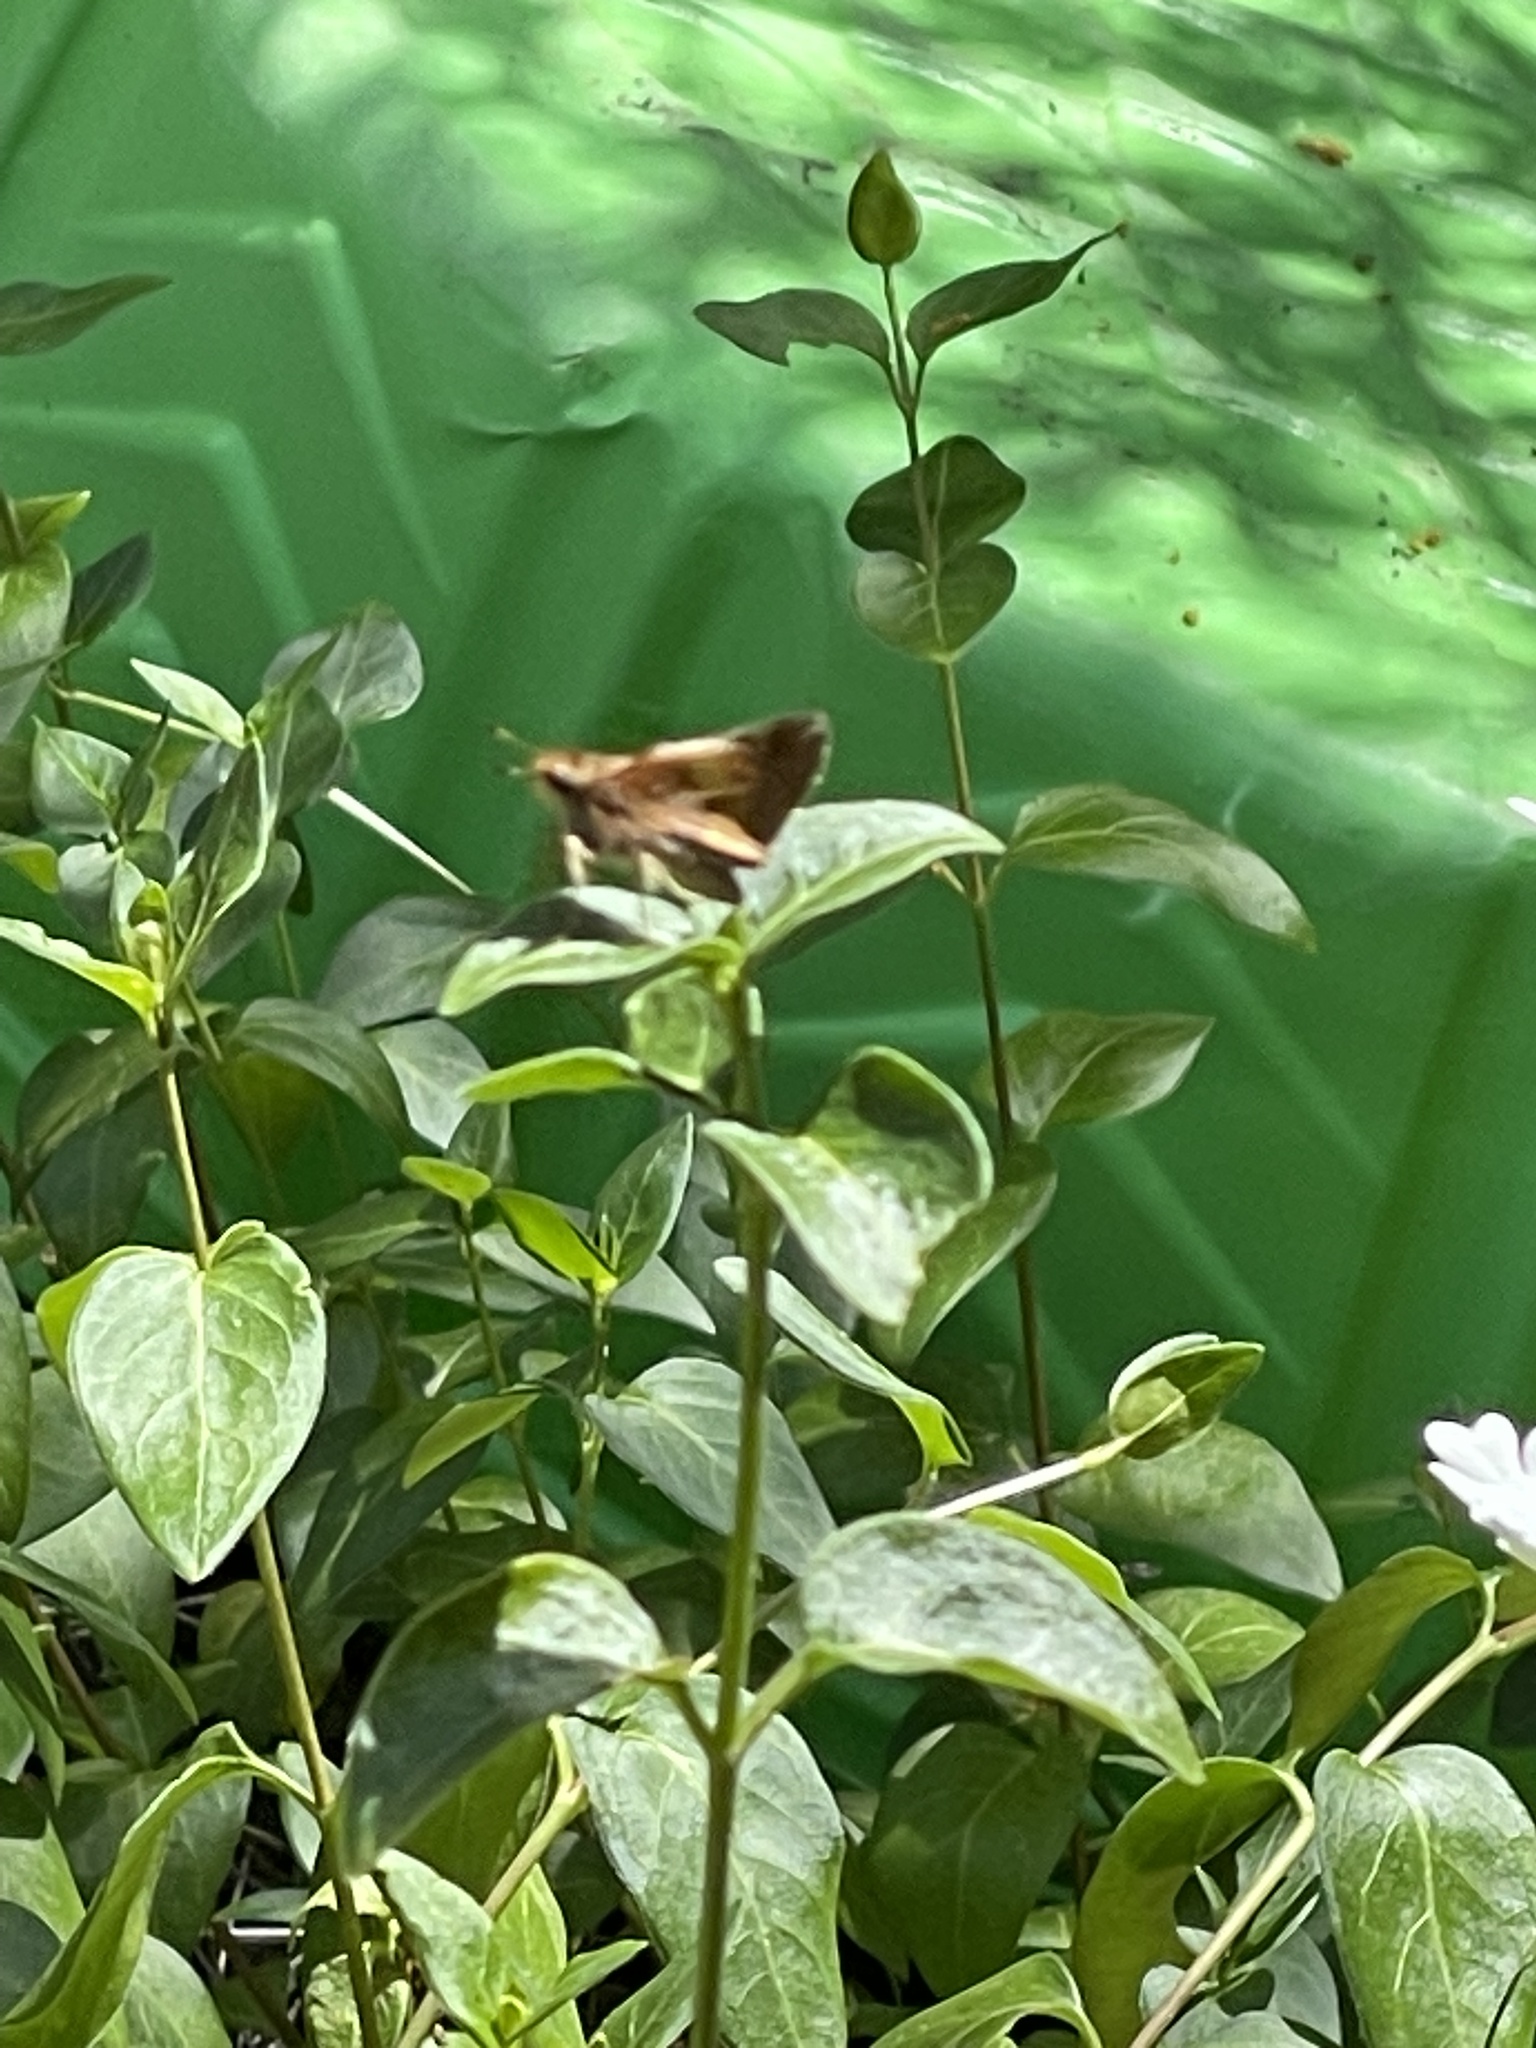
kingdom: Animalia
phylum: Arthropoda
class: Insecta
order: Lepidoptera
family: Hesperiidae
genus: Lon
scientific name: Lon melane
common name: Umber skipper
